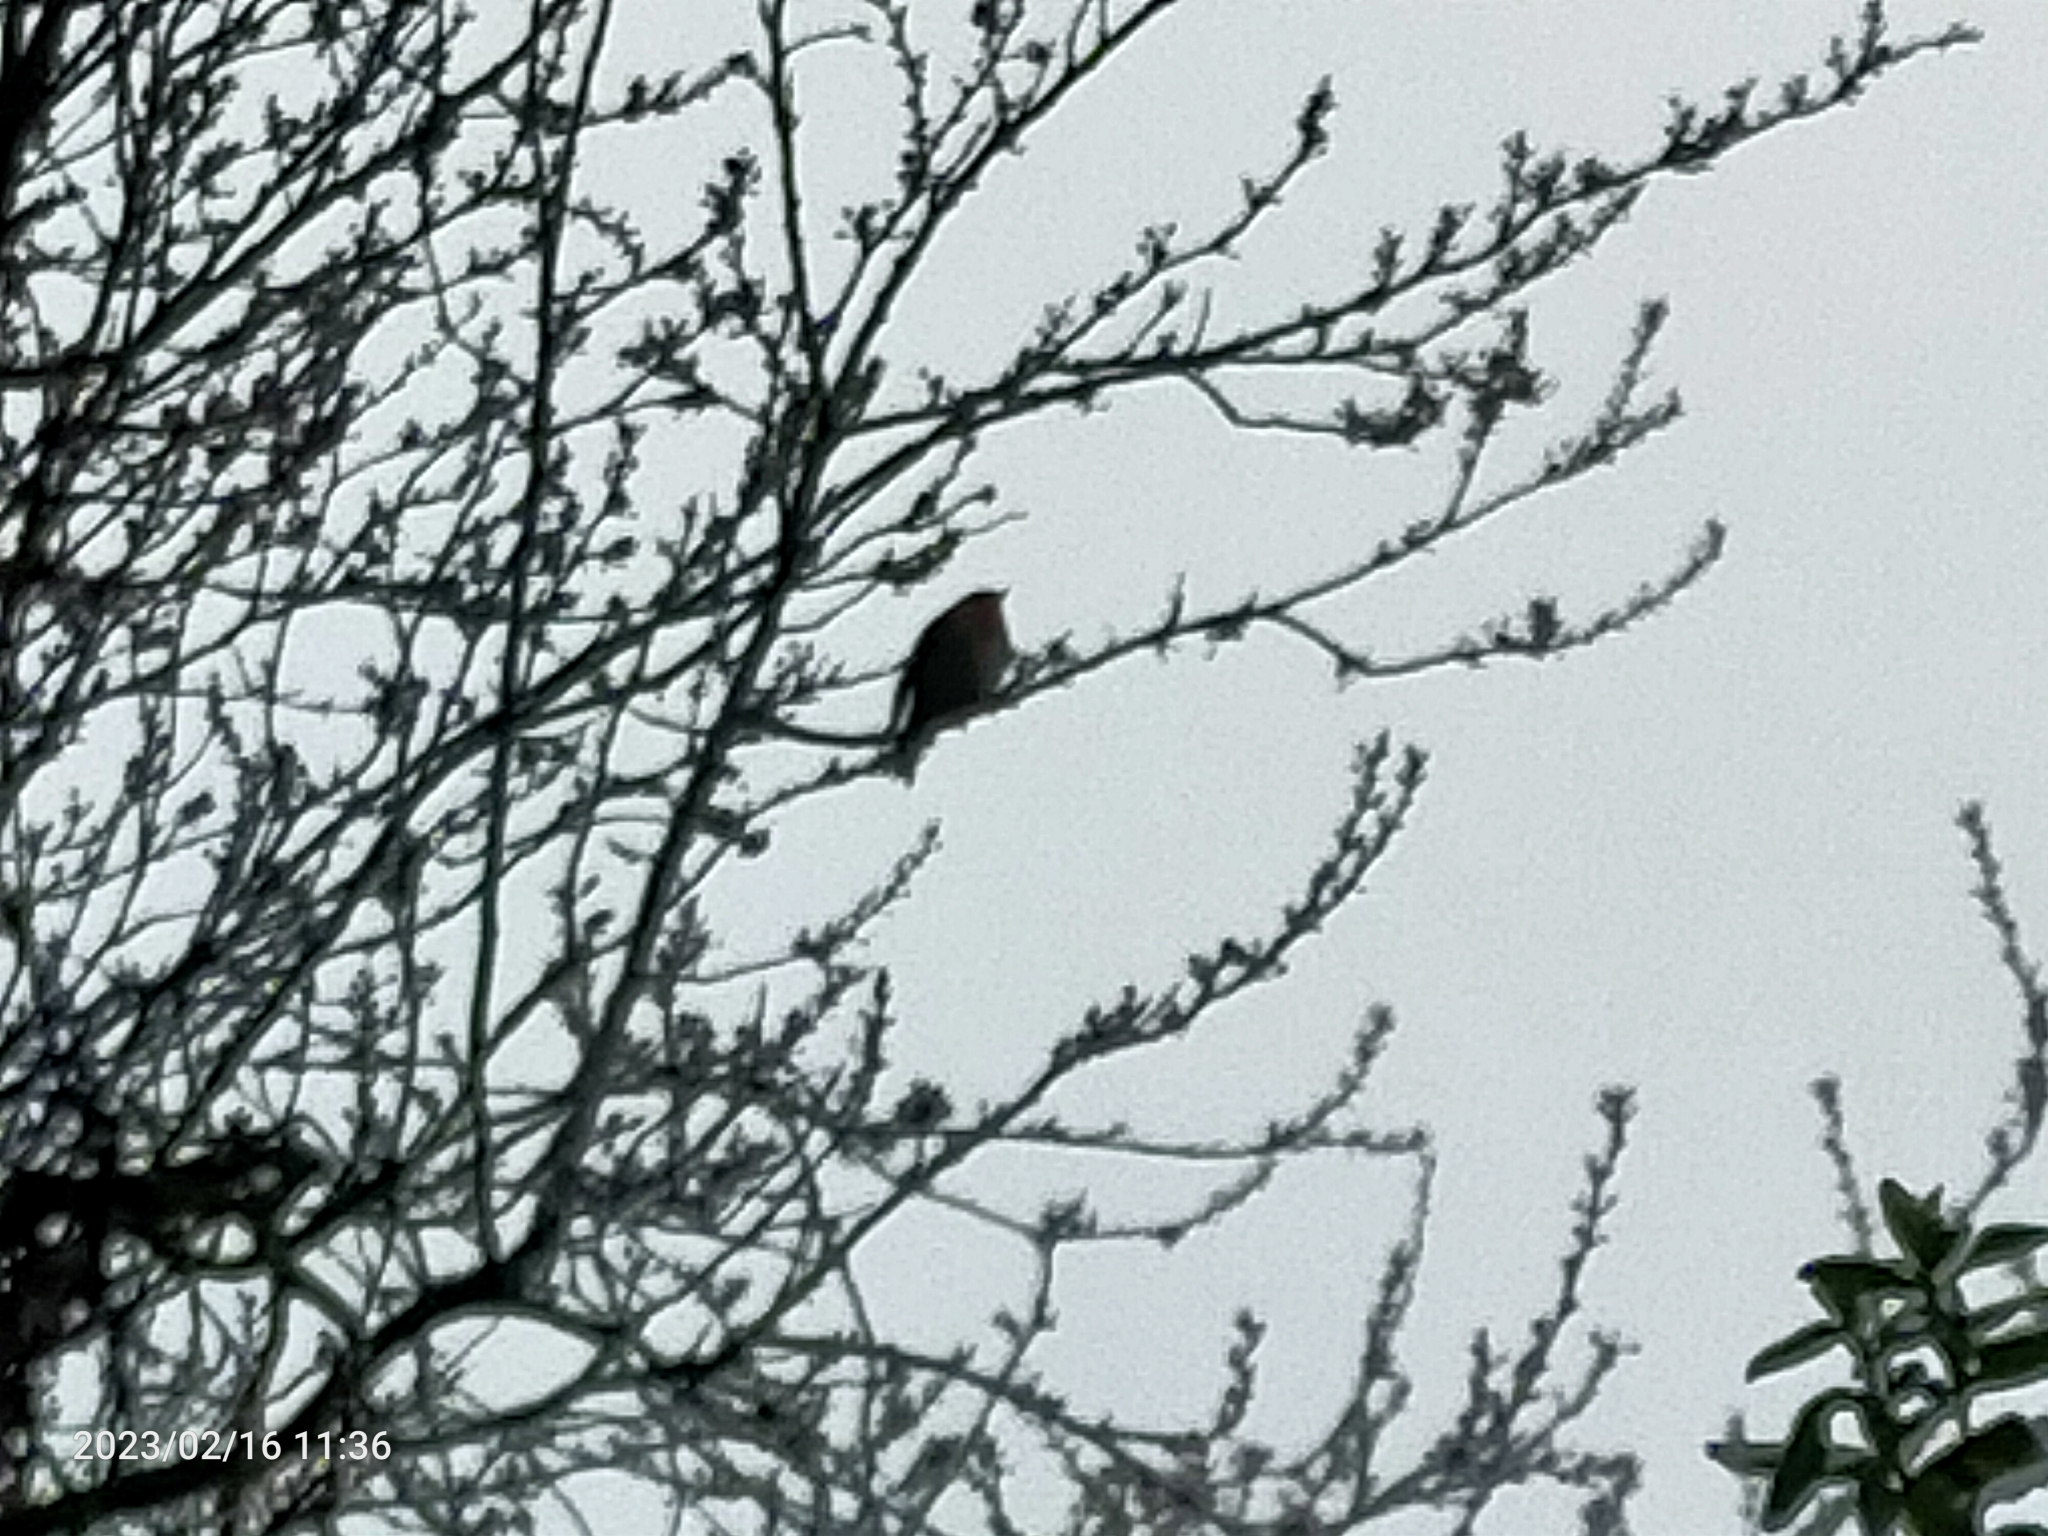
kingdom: Animalia
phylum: Chordata
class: Aves
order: Passeriformes
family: Muscicapidae
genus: Erithacus
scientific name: Erithacus rubecula
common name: European robin
